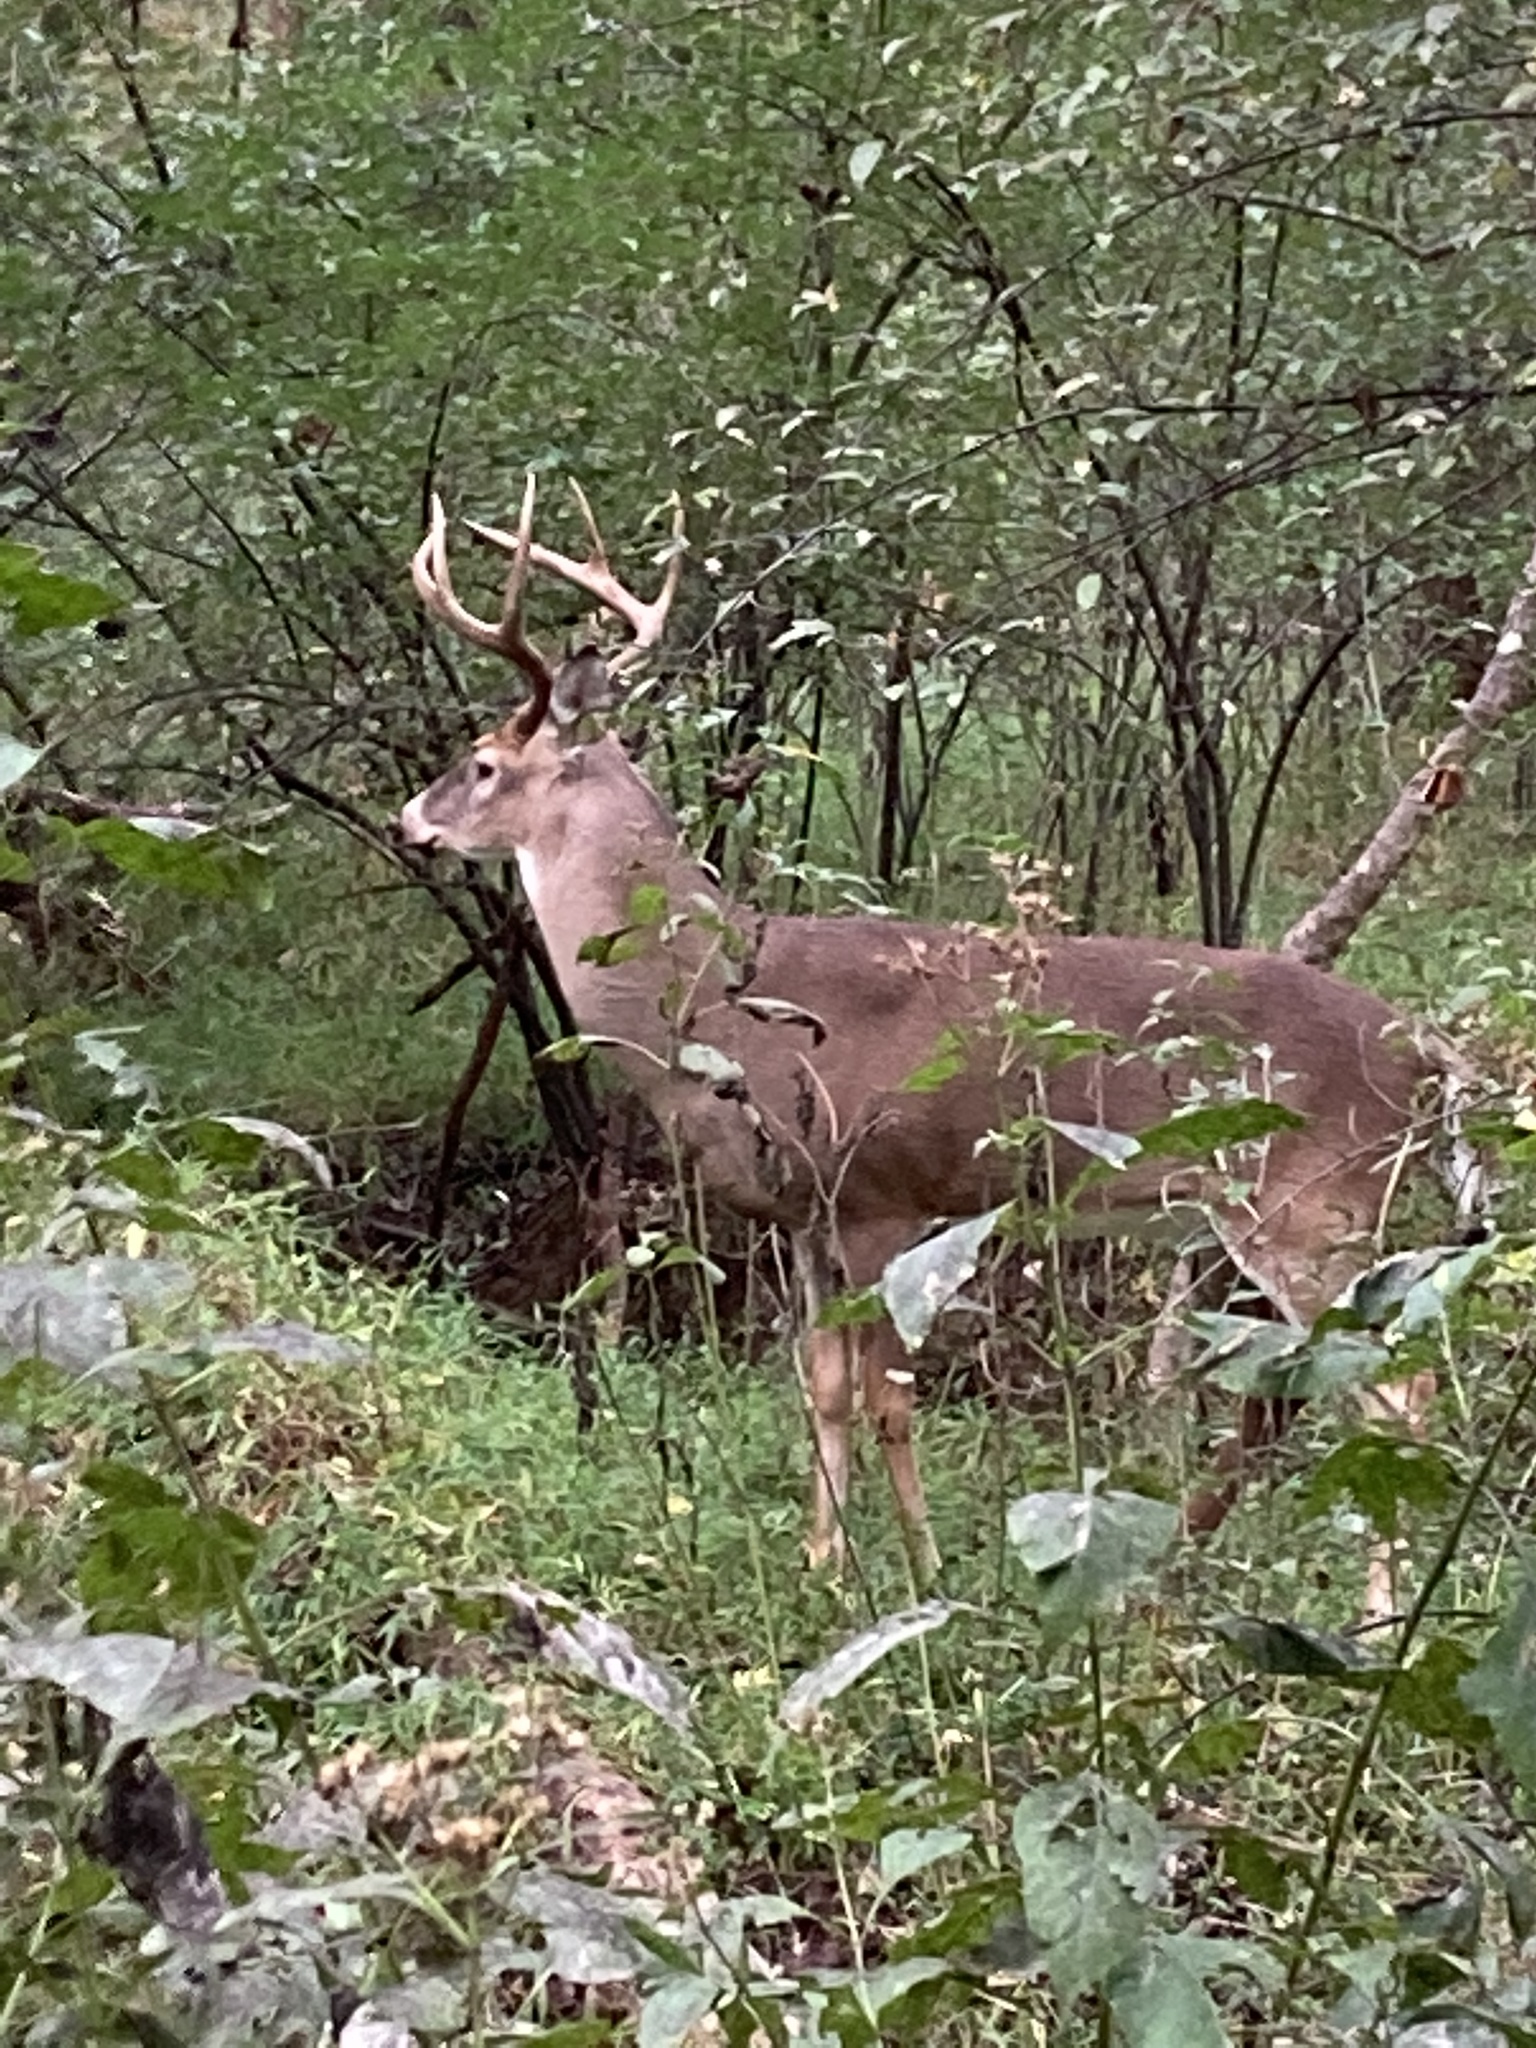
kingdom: Animalia
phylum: Chordata
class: Mammalia
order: Artiodactyla
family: Cervidae
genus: Odocoileus
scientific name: Odocoileus virginianus
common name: White-tailed deer
